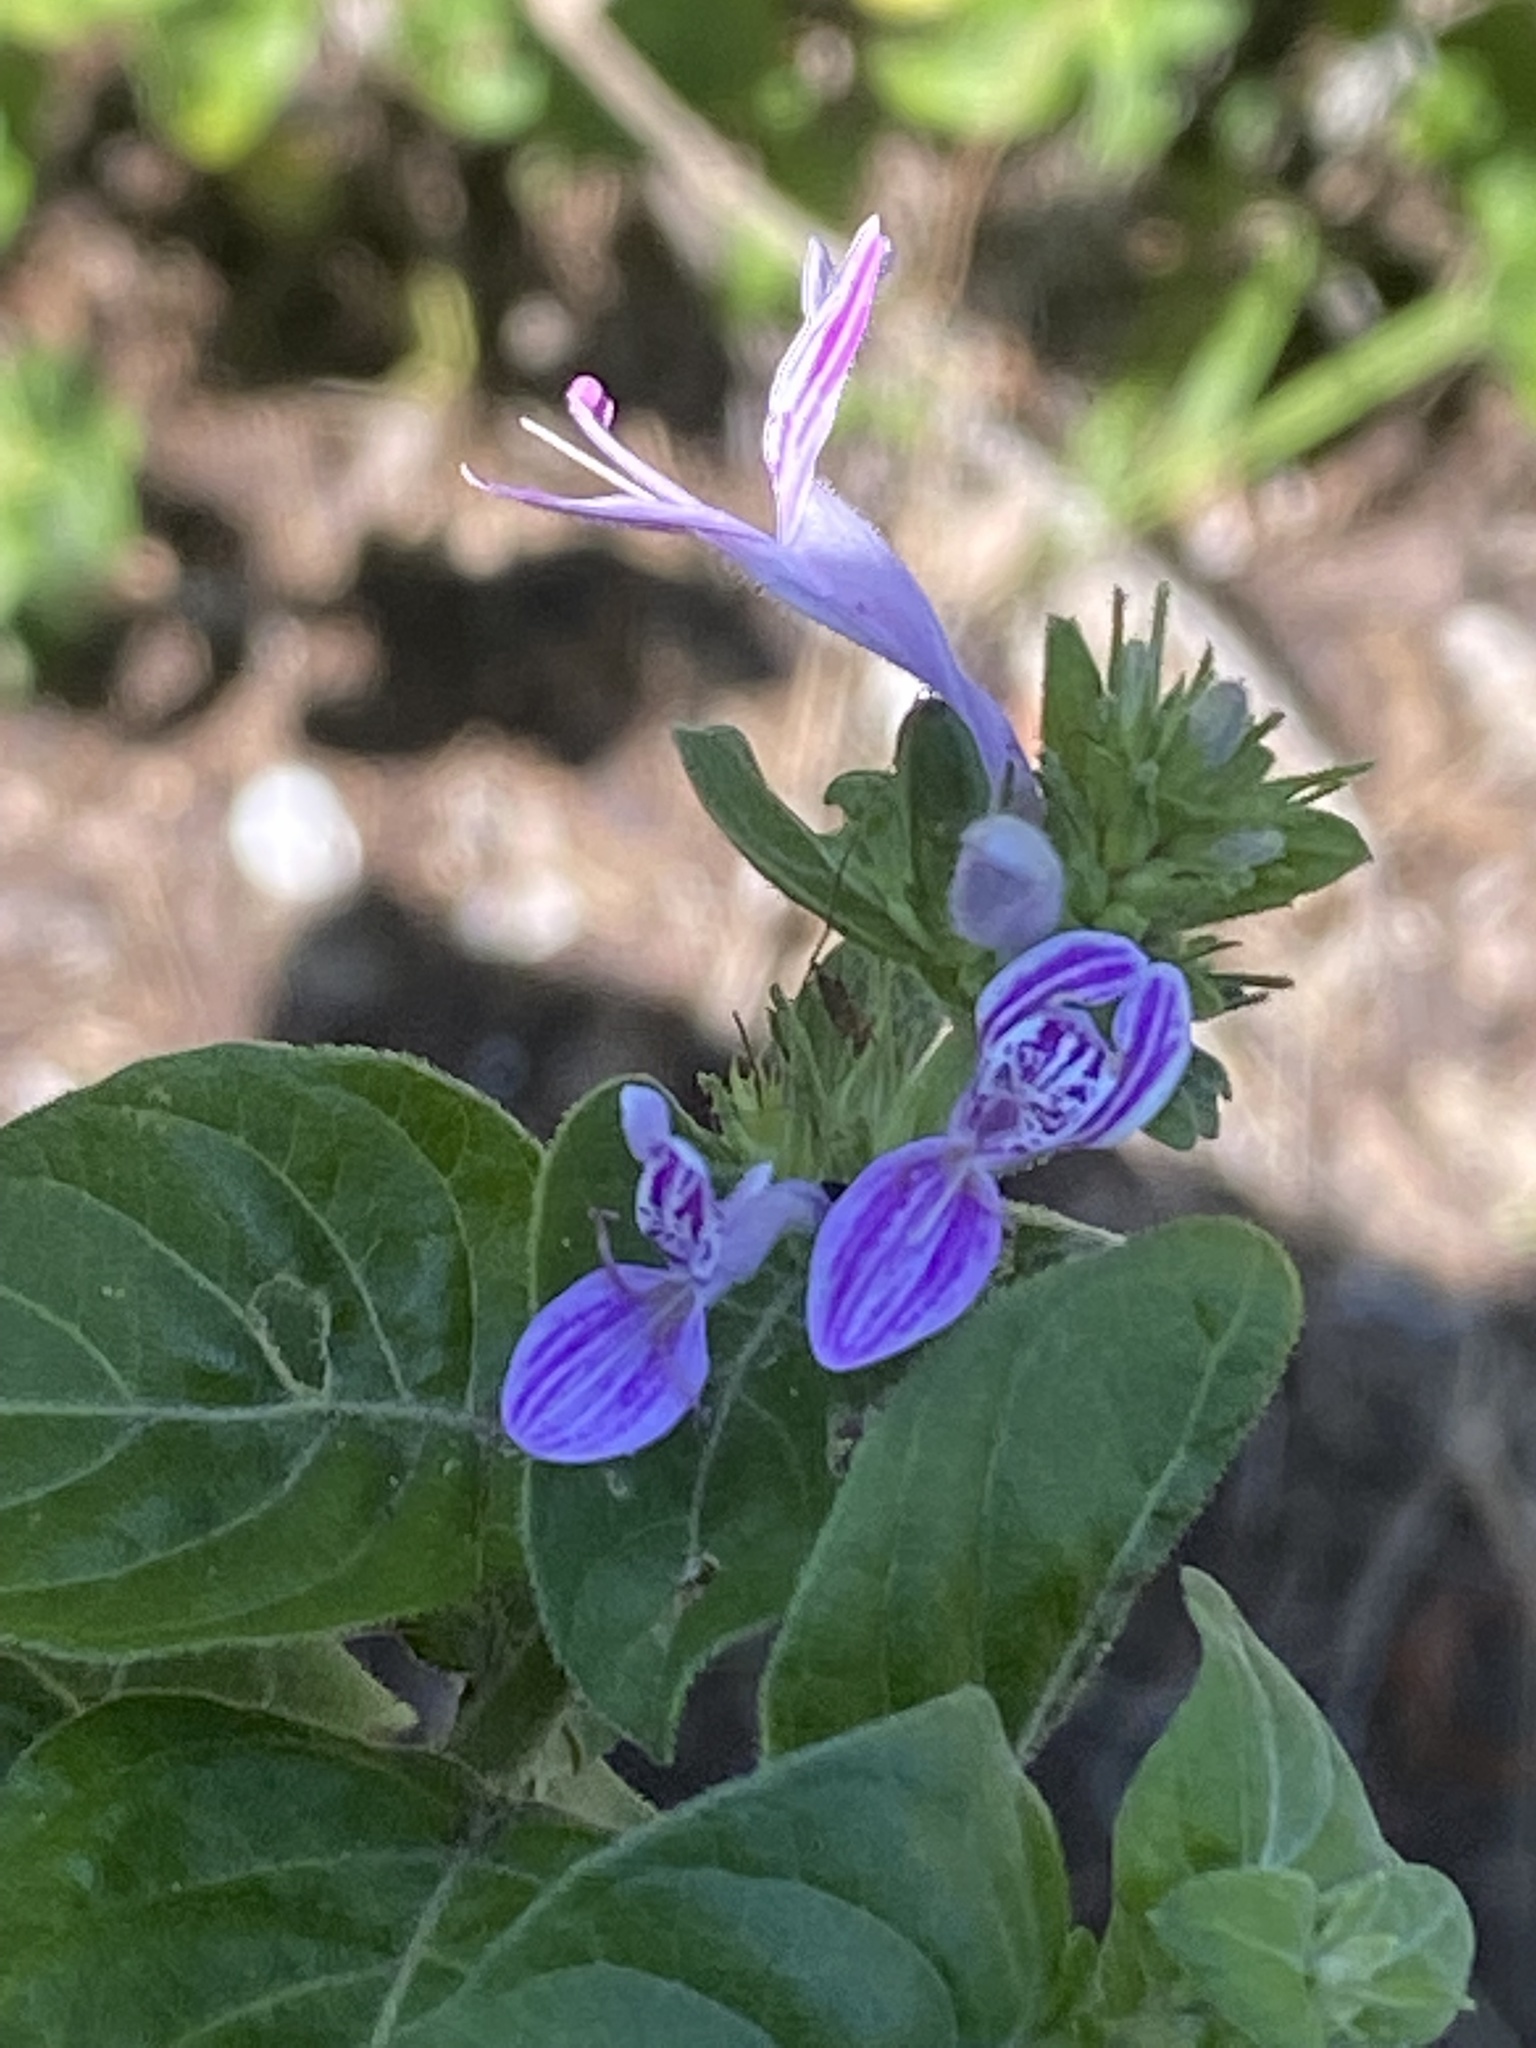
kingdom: Plantae
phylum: Tracheophyta
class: Magnoliopsida
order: Lamiales
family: Acanthaceae
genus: Hypoestes
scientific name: Hypoestes aristata
